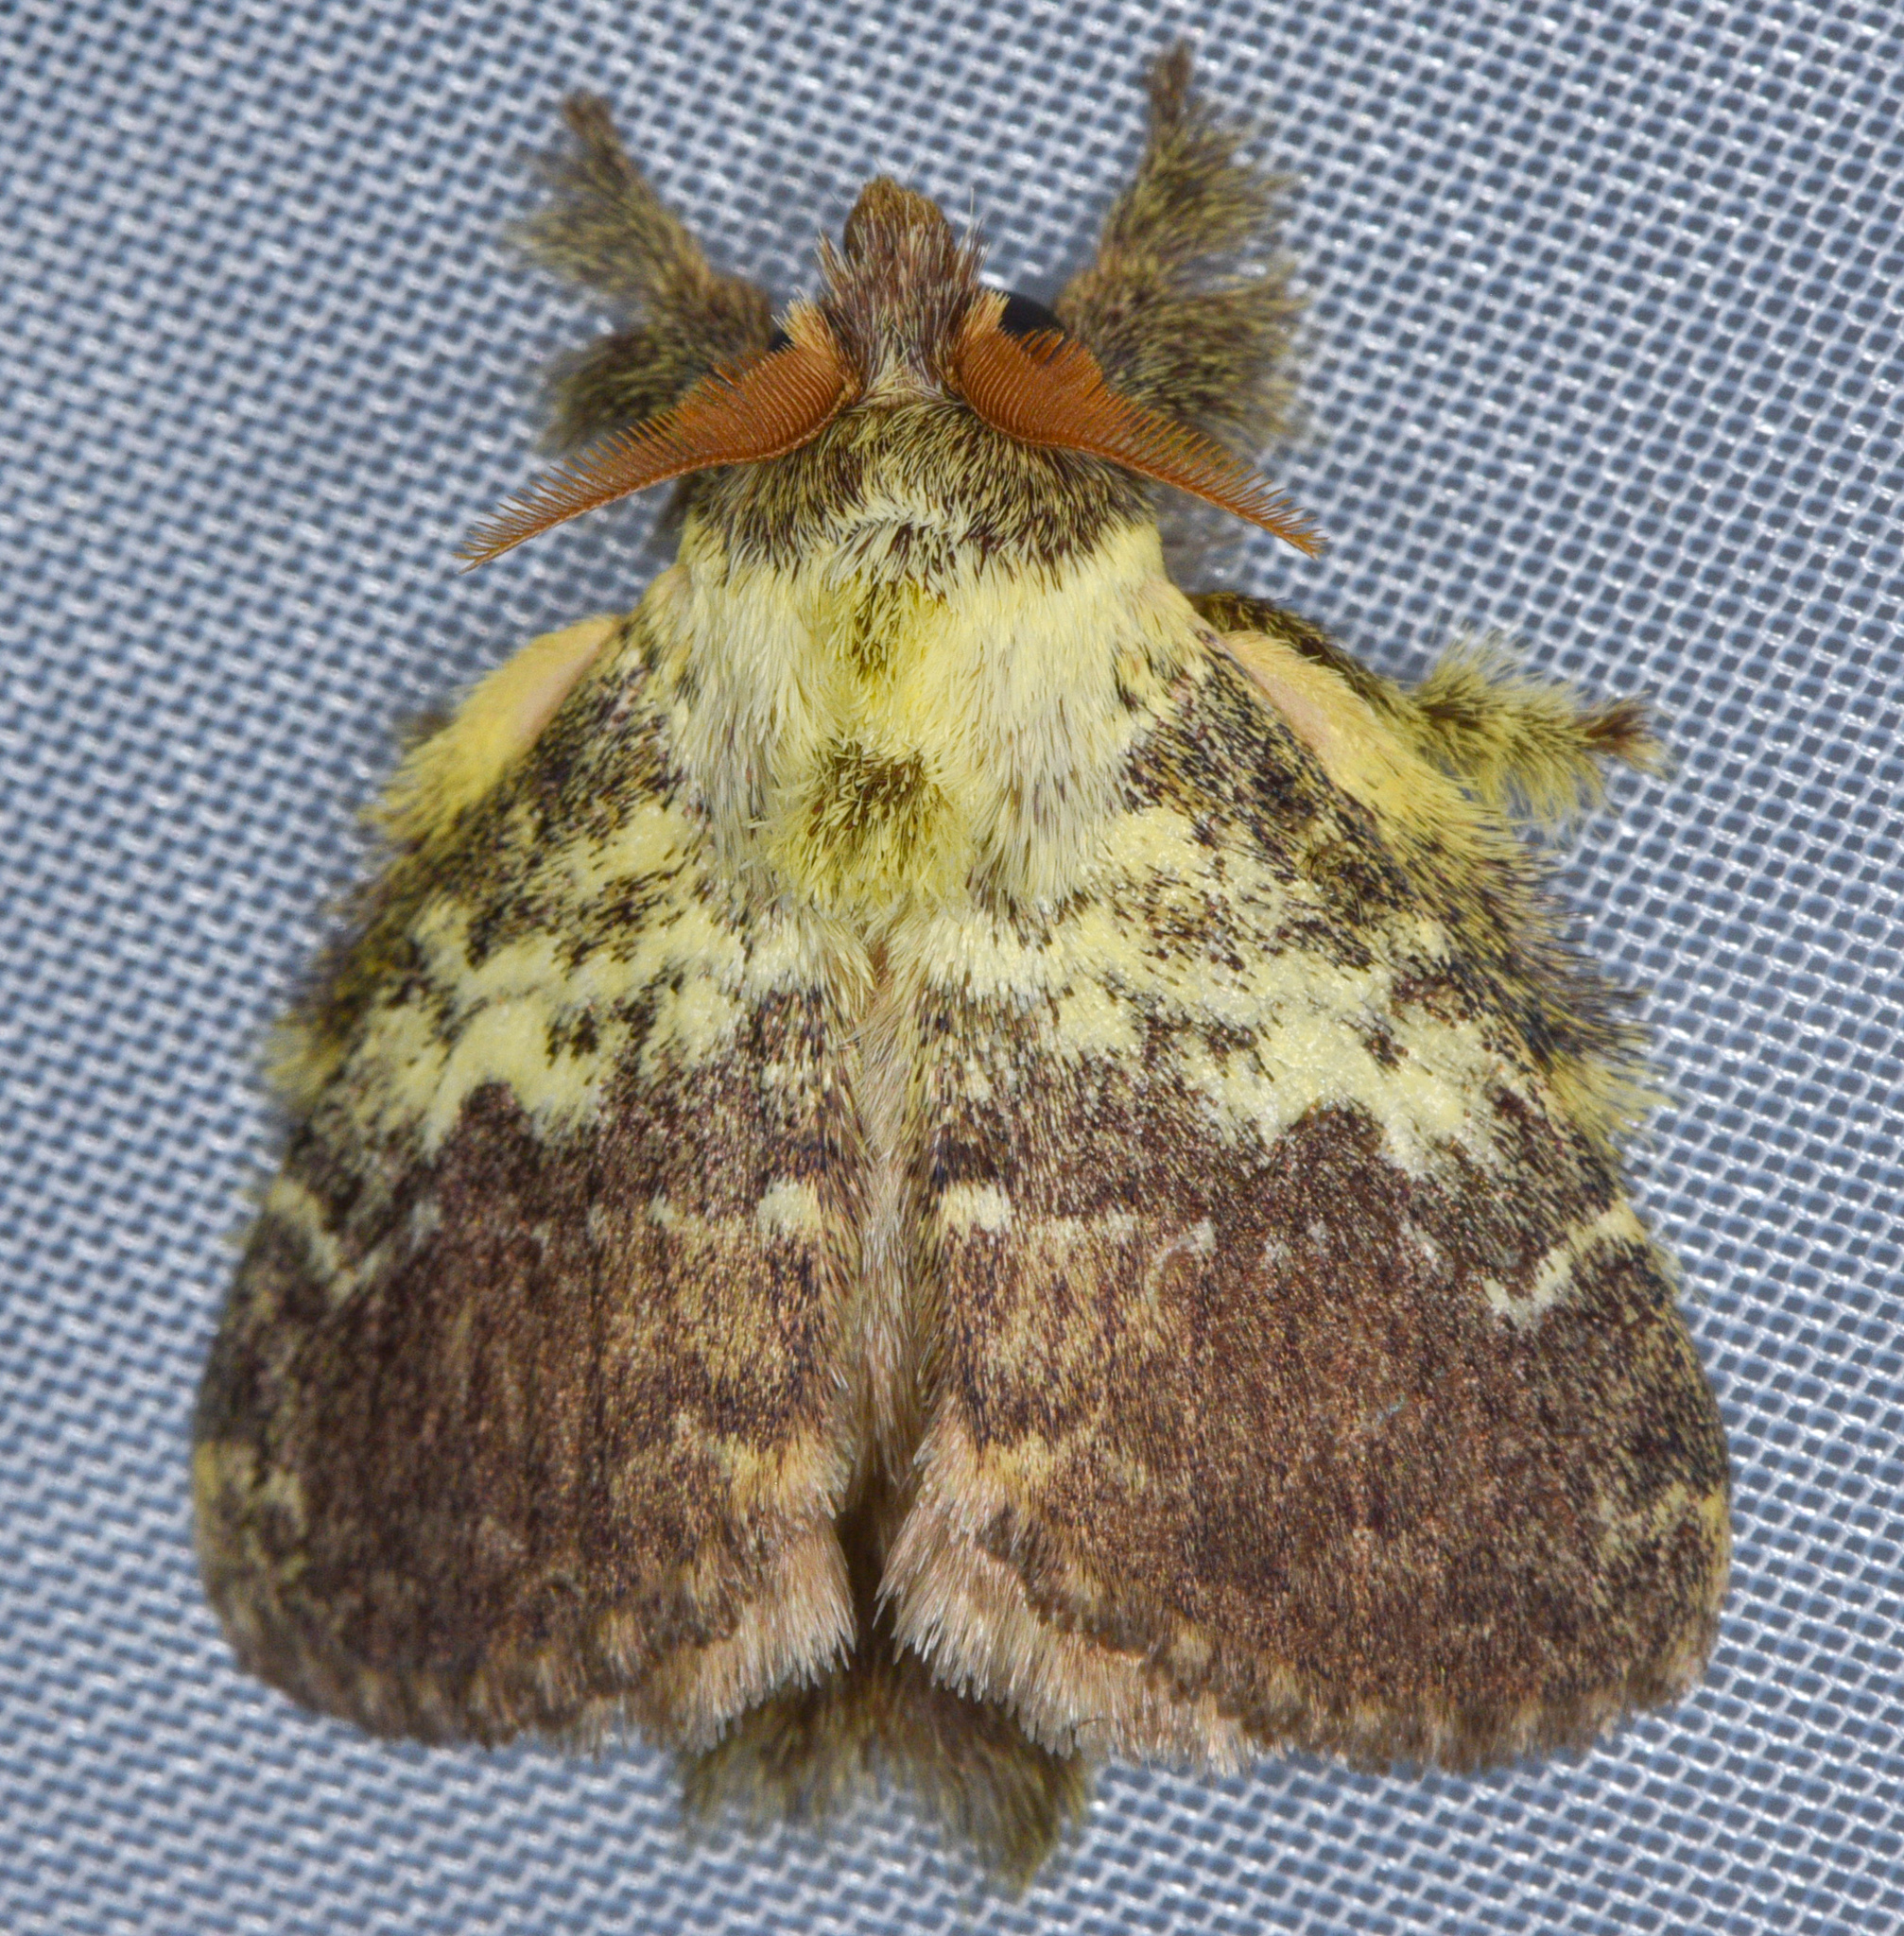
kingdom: Animalia
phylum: Arthropoda
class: Insecta
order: Lepidoptera
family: Lasiocampidae
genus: Euglyphis
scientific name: Euglyphis primola
